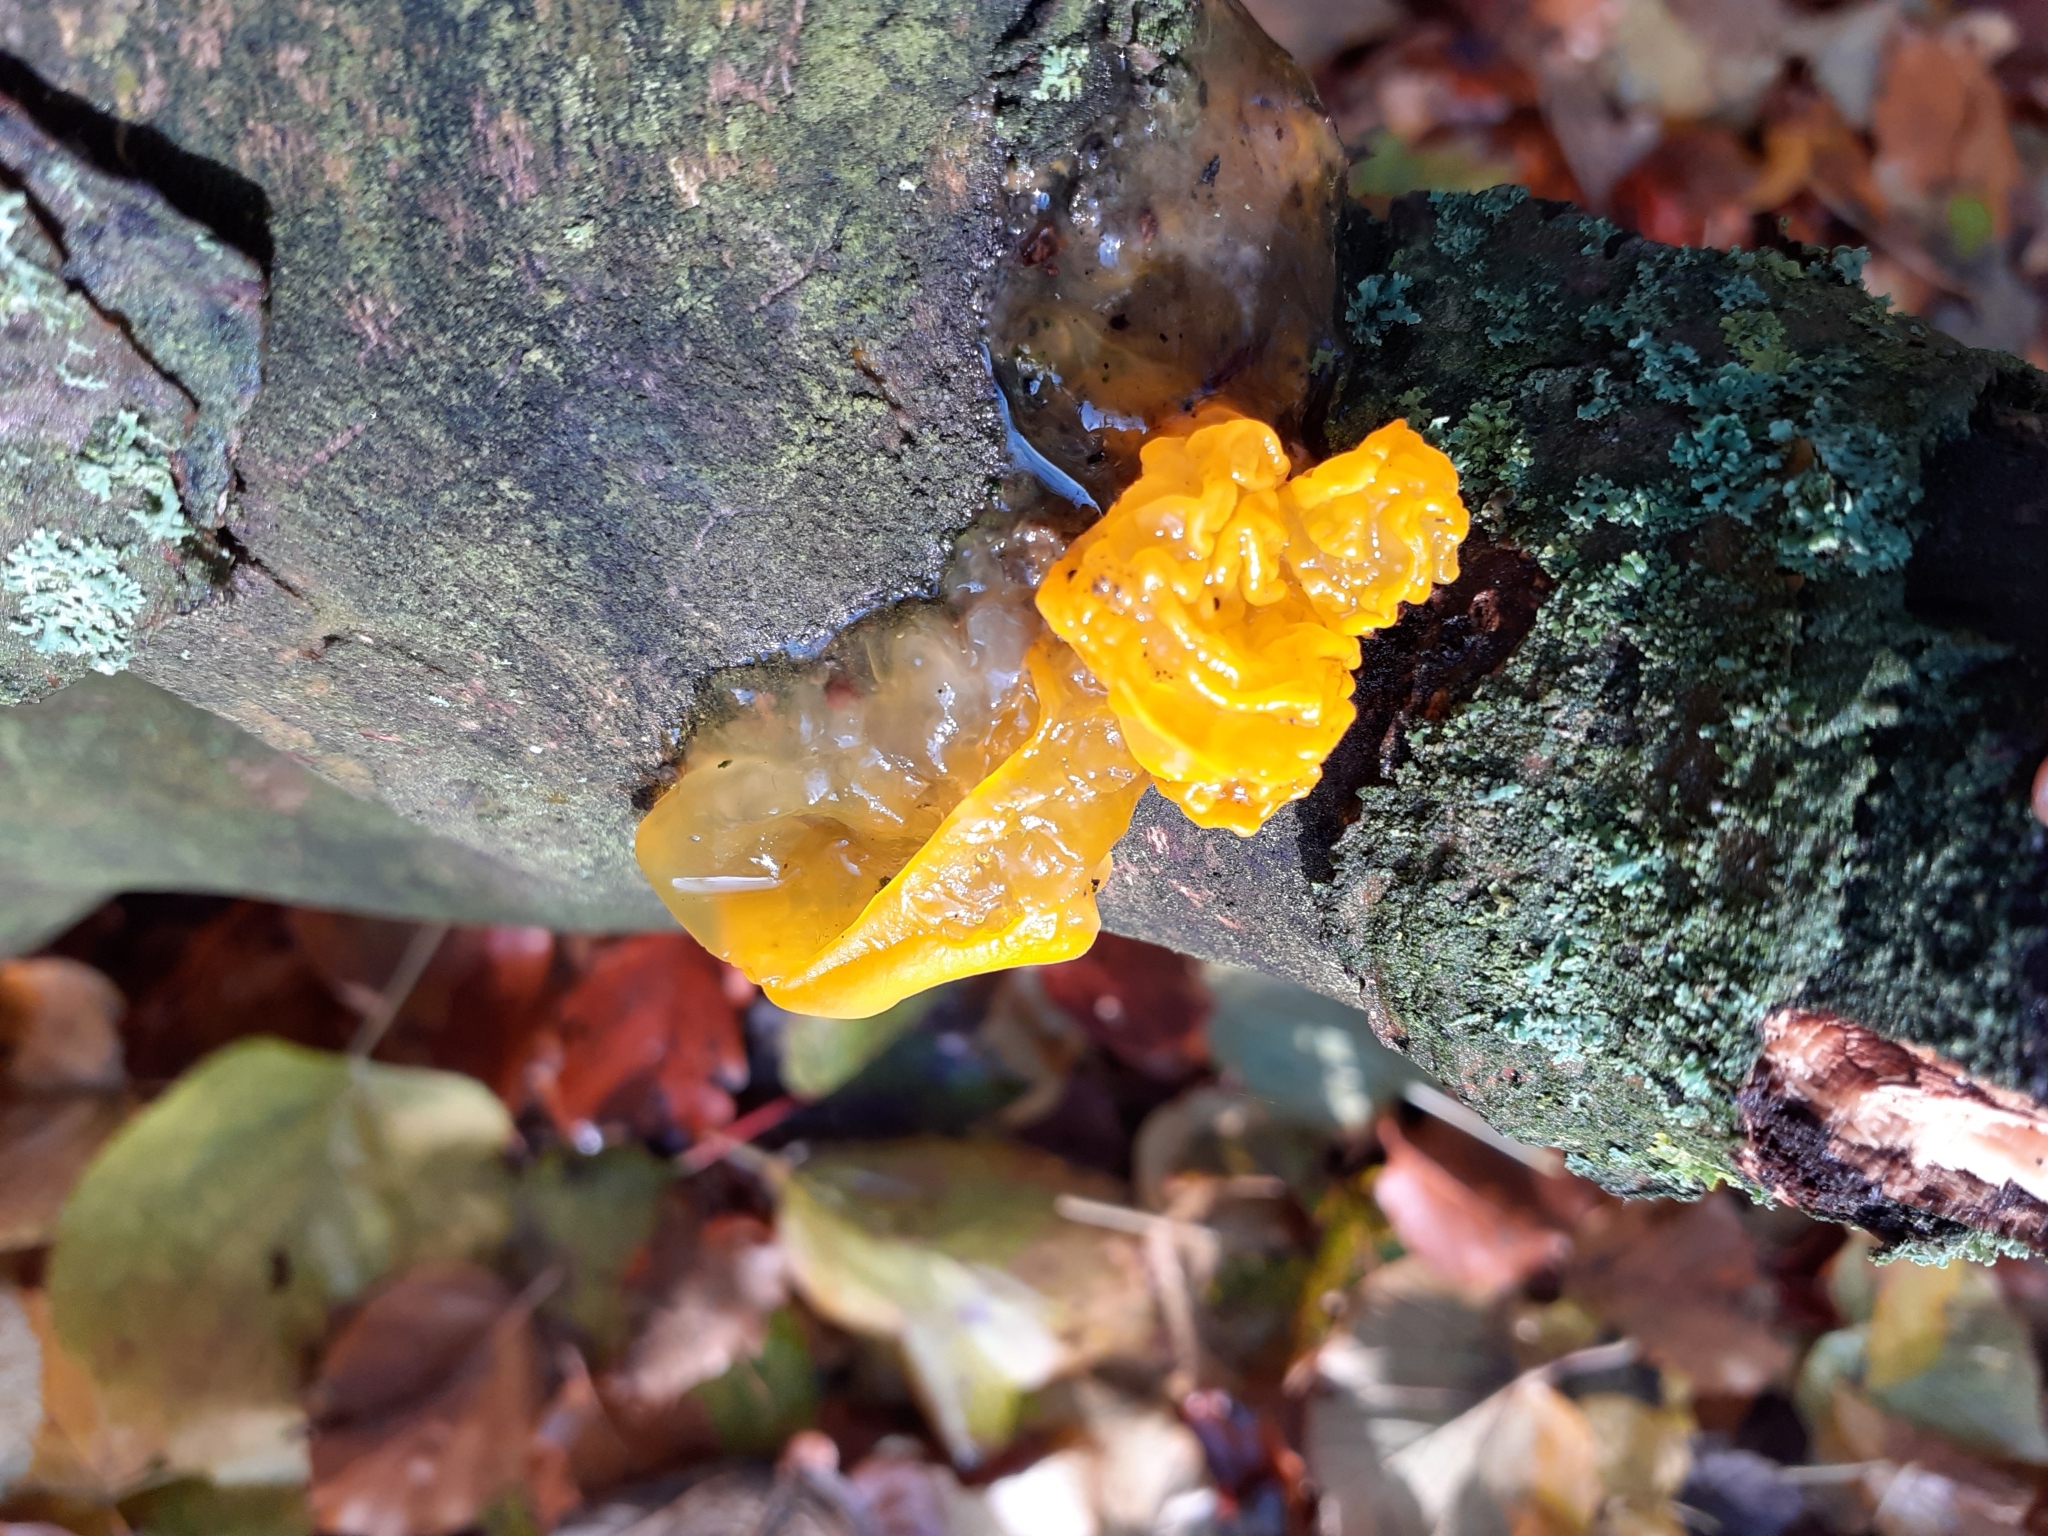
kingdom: Fungi
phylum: Basidiomycota
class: Tremellomycetes
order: Tremellales
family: Tremellaceae
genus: Tremella
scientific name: Tremella mesenterica
